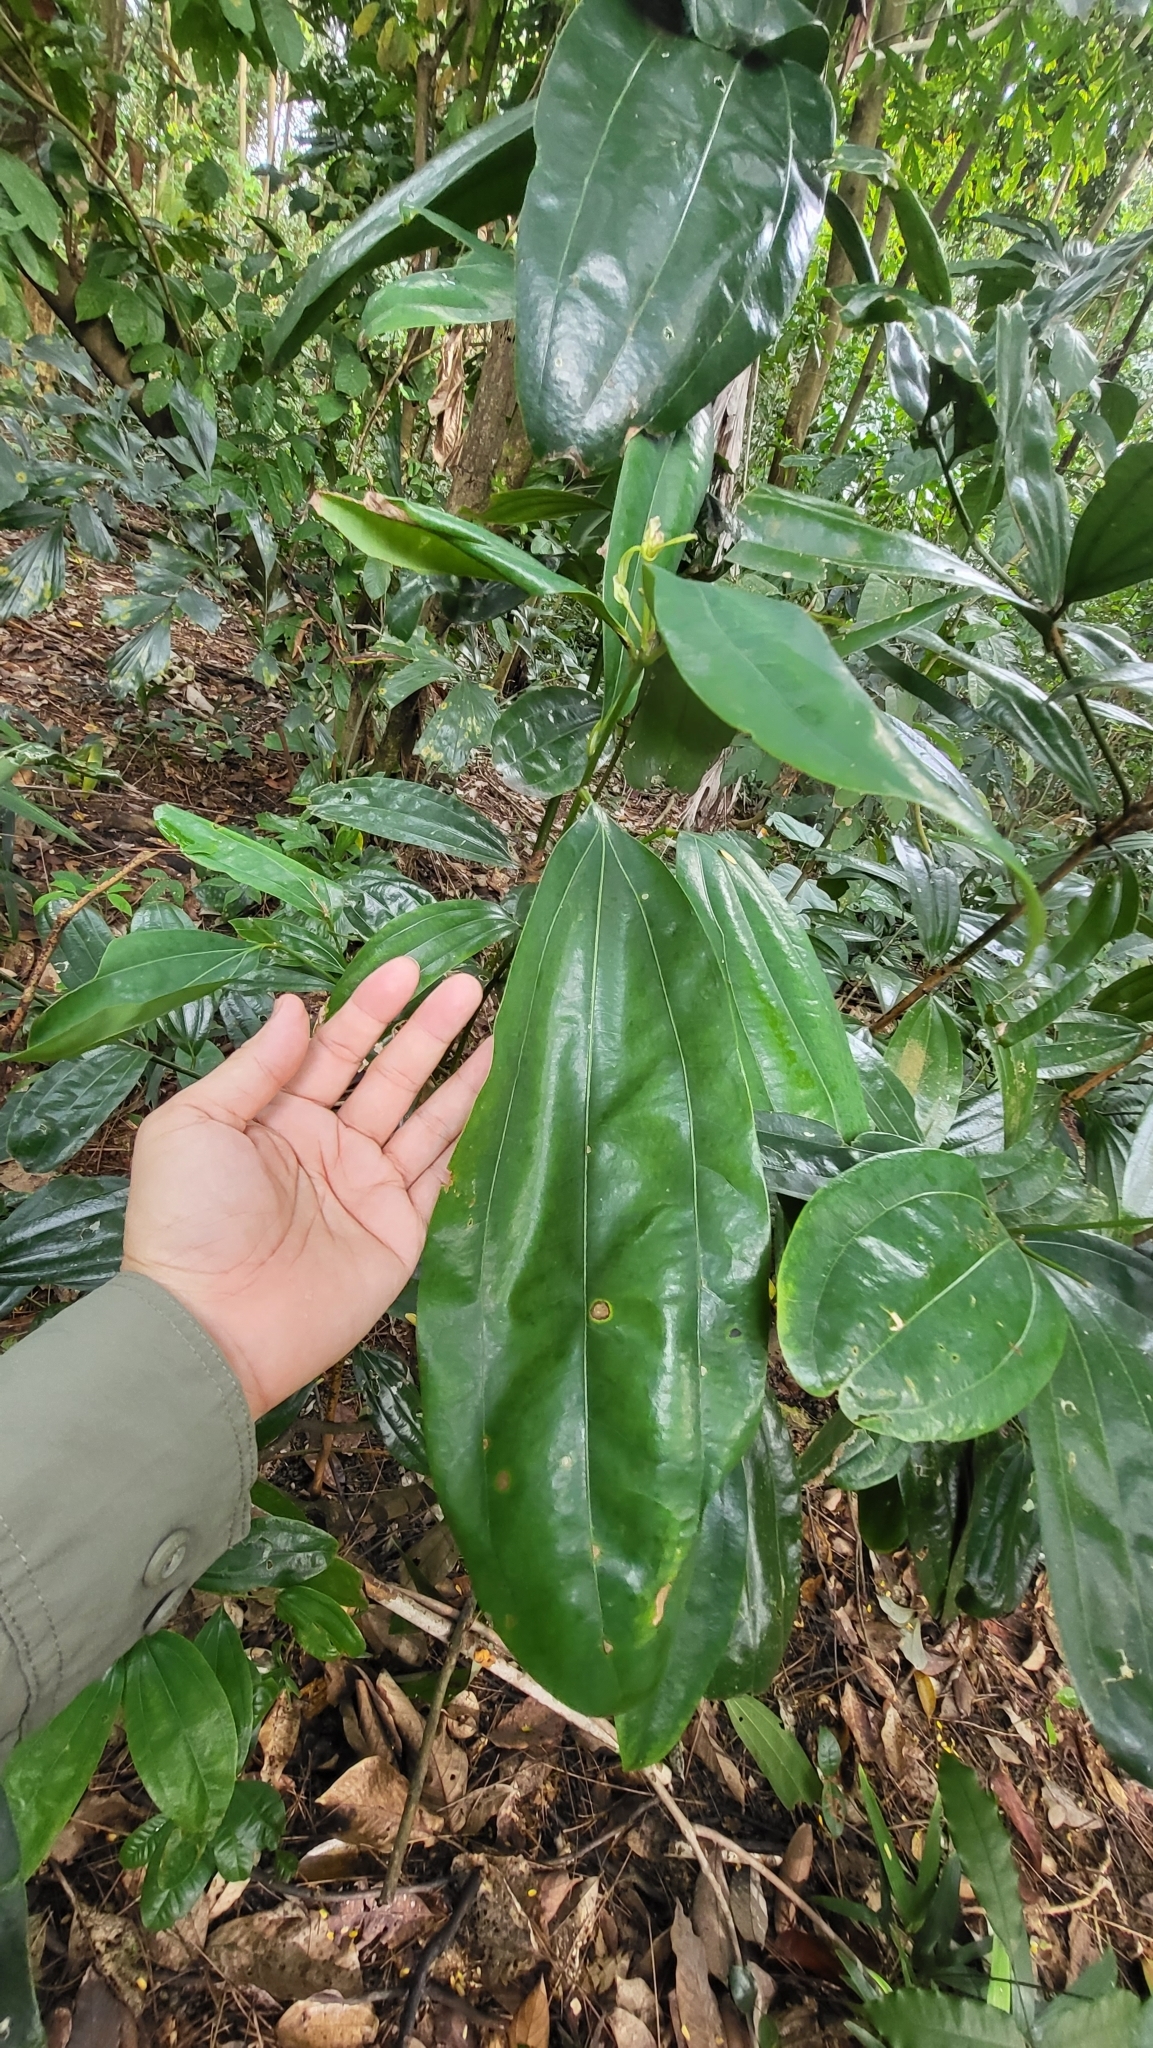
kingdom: Plantae
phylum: Tracheophyta
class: Magnoliopsida
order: Laurales
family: Lauraceae
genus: Cinnamomum
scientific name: Cinnamomum iners
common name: Wild cinnamon
